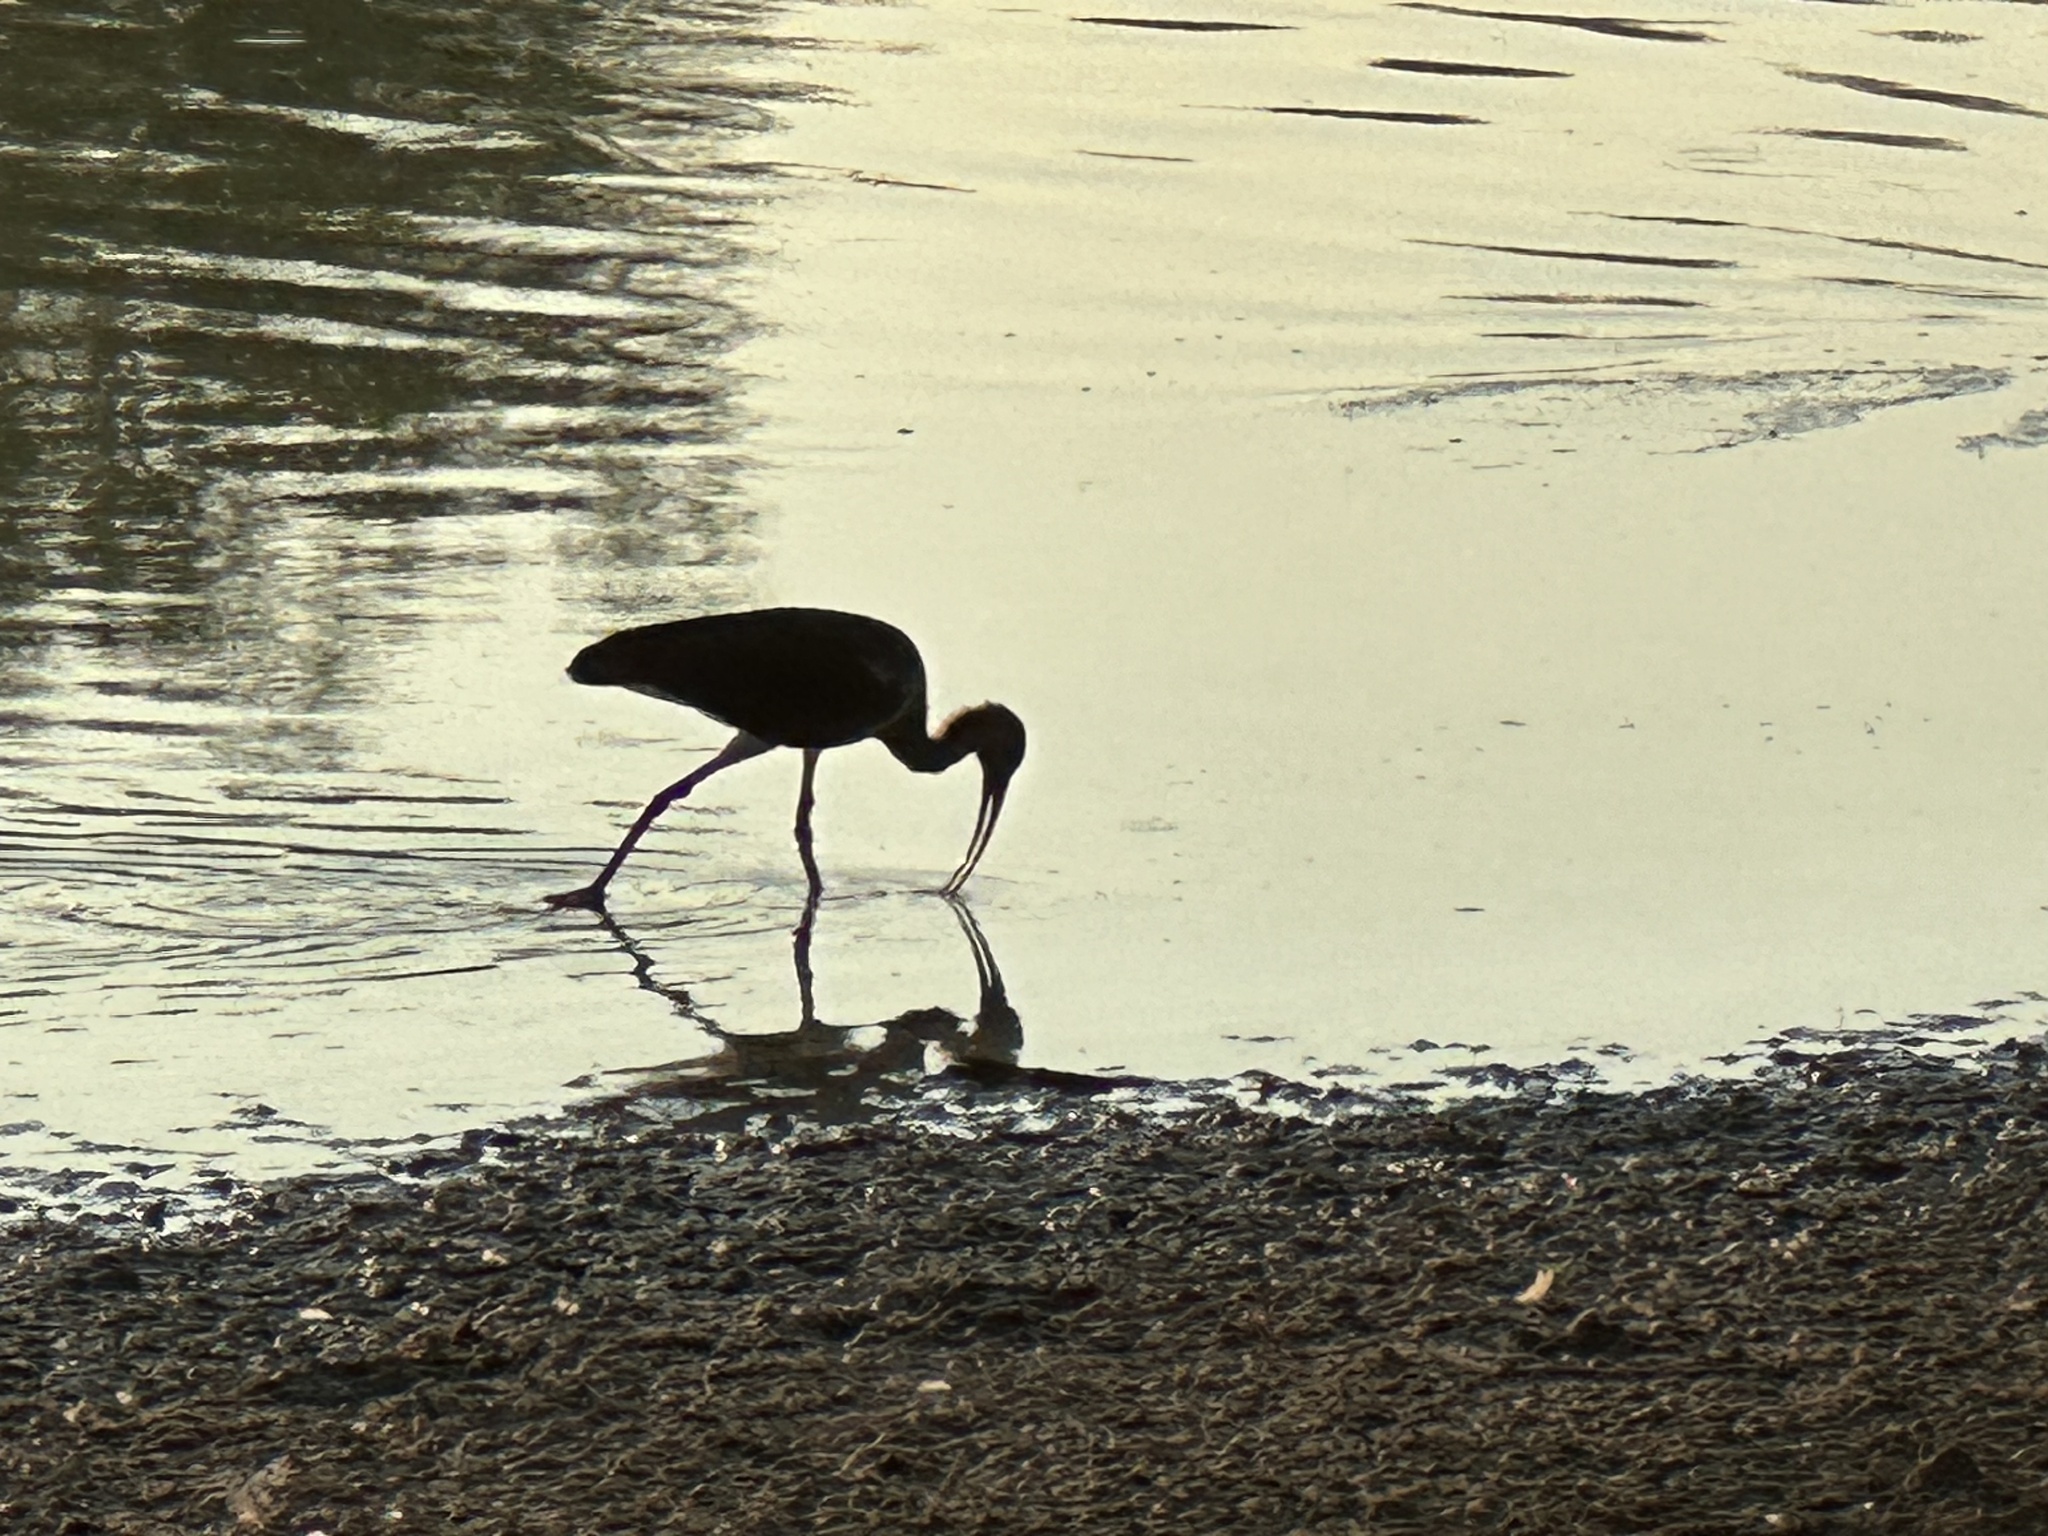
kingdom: Animalia
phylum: Chordata
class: Aves
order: Pelecaniformes
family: Threskiornithidae
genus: Plegadis
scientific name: Plegadis
